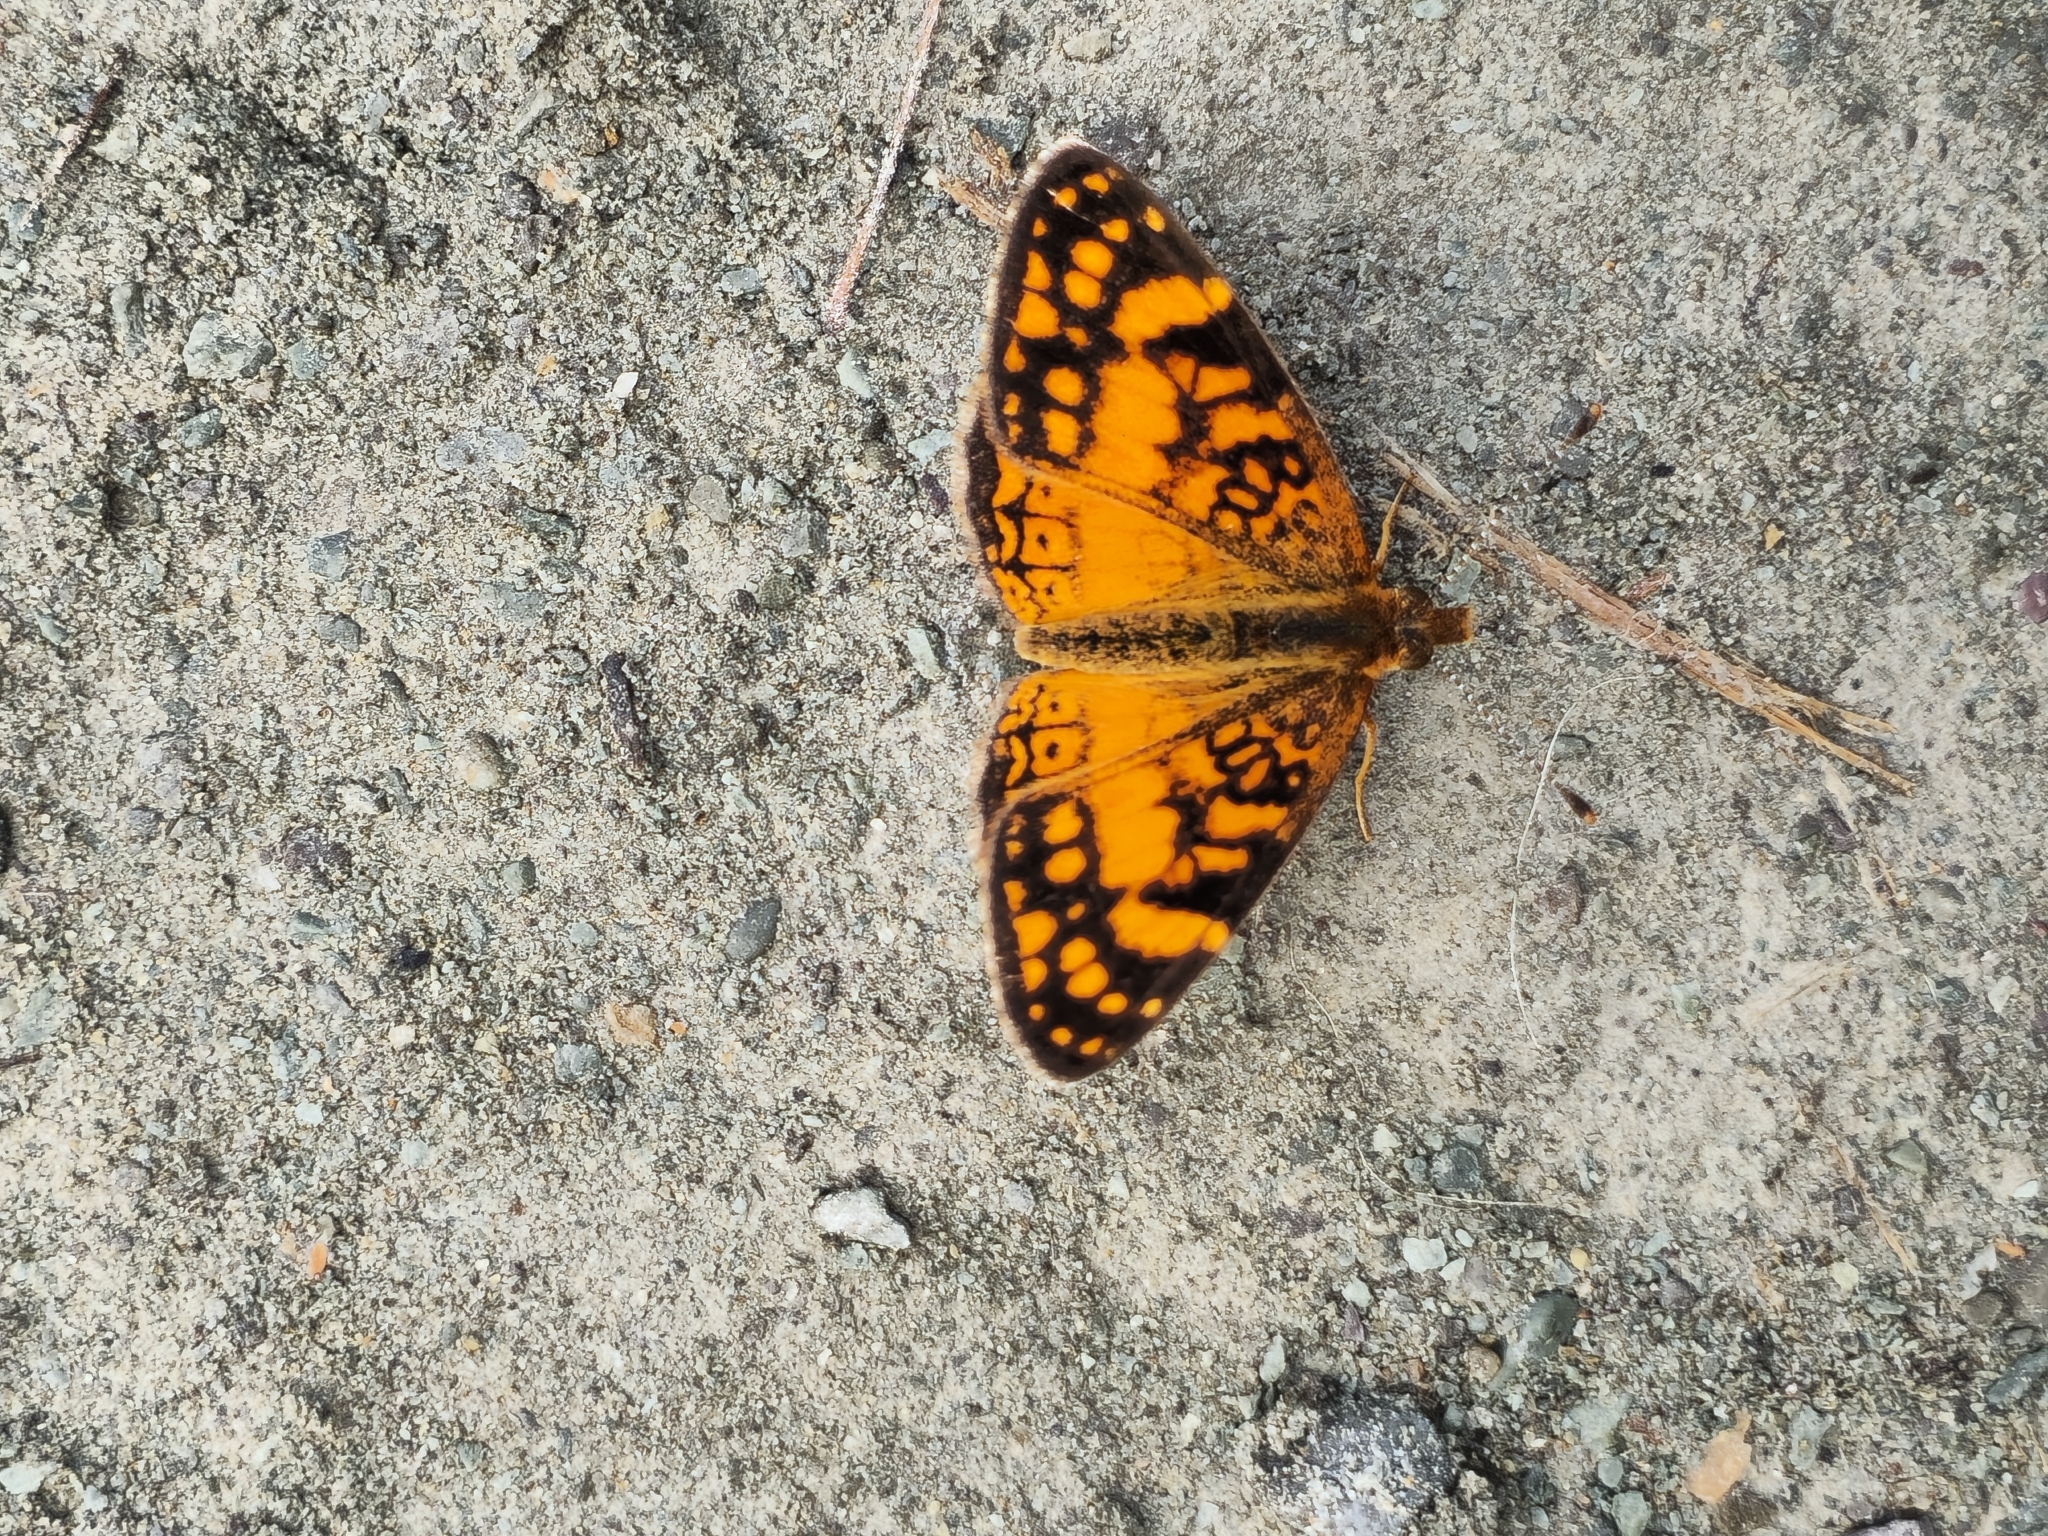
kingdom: Animalia
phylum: Arthropoda
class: Insecta
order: Lepidoptera
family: Nymphalidae
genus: Tegosa
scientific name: Tegosa orobia
